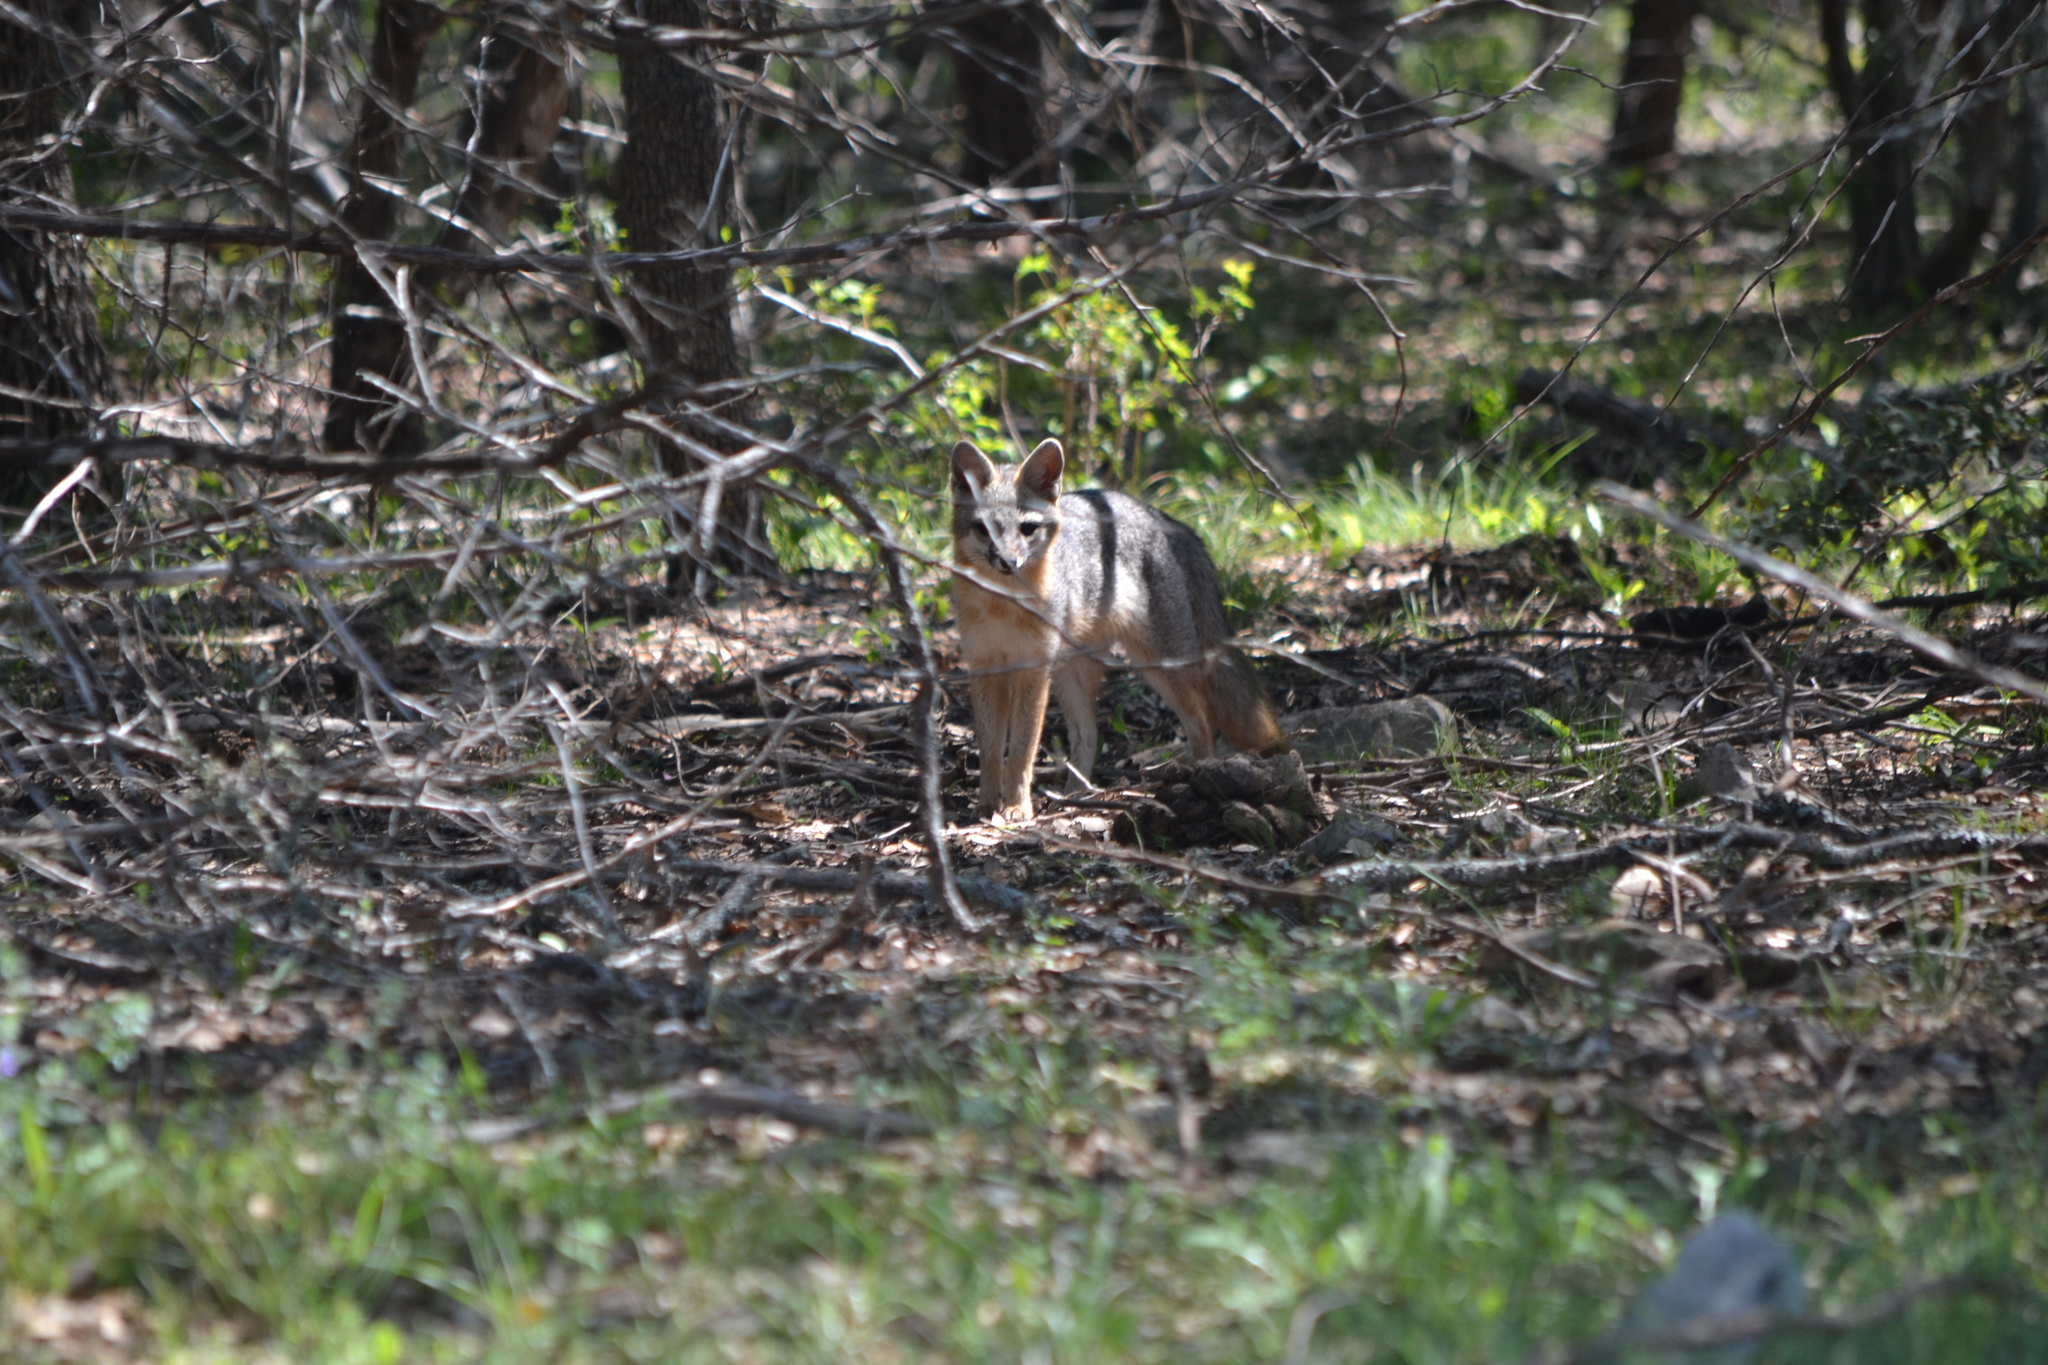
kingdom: Animalia
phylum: Chordata
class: Mammalia
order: Carnivora
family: Canidae
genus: Urocyon
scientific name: Urocyon cinereoargenteus
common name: Gray fox
